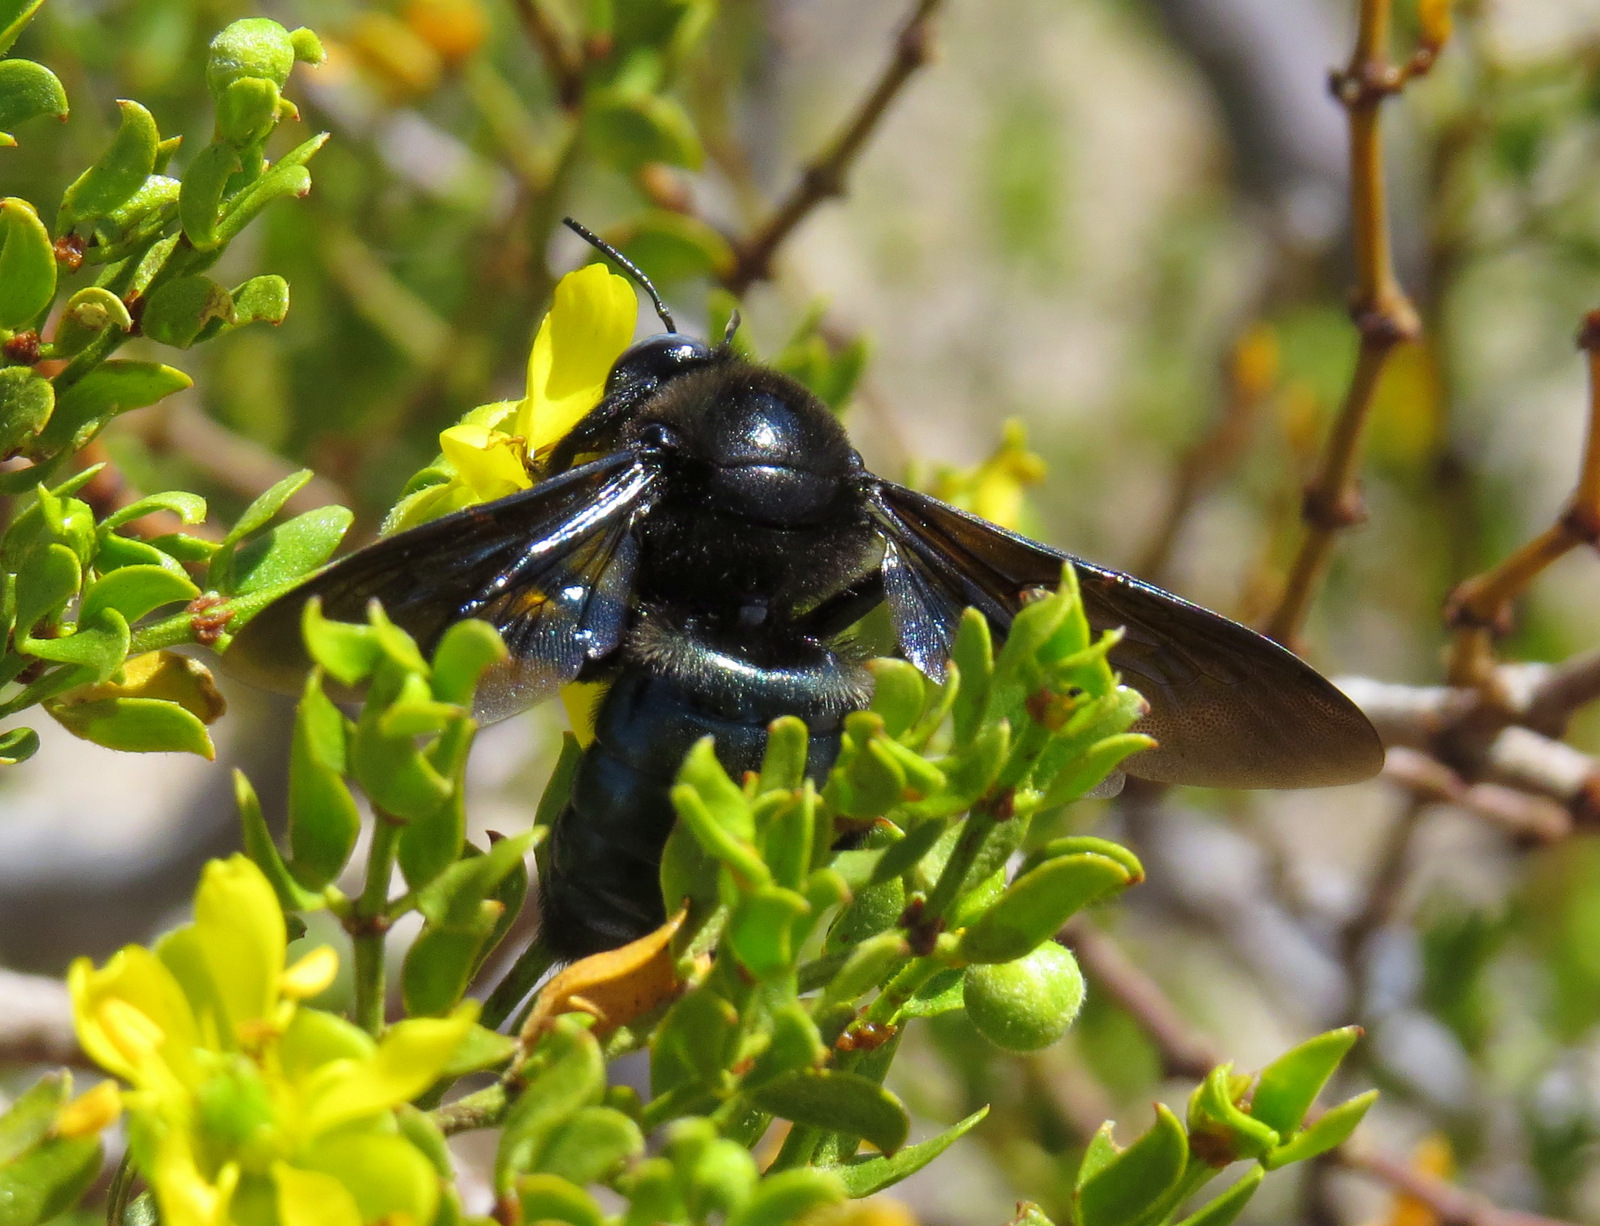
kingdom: Animalia
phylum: Arthropoda
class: Insecta
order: Hymenoptera
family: Apidae
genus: Xylocopa
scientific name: Xylocopa californica
